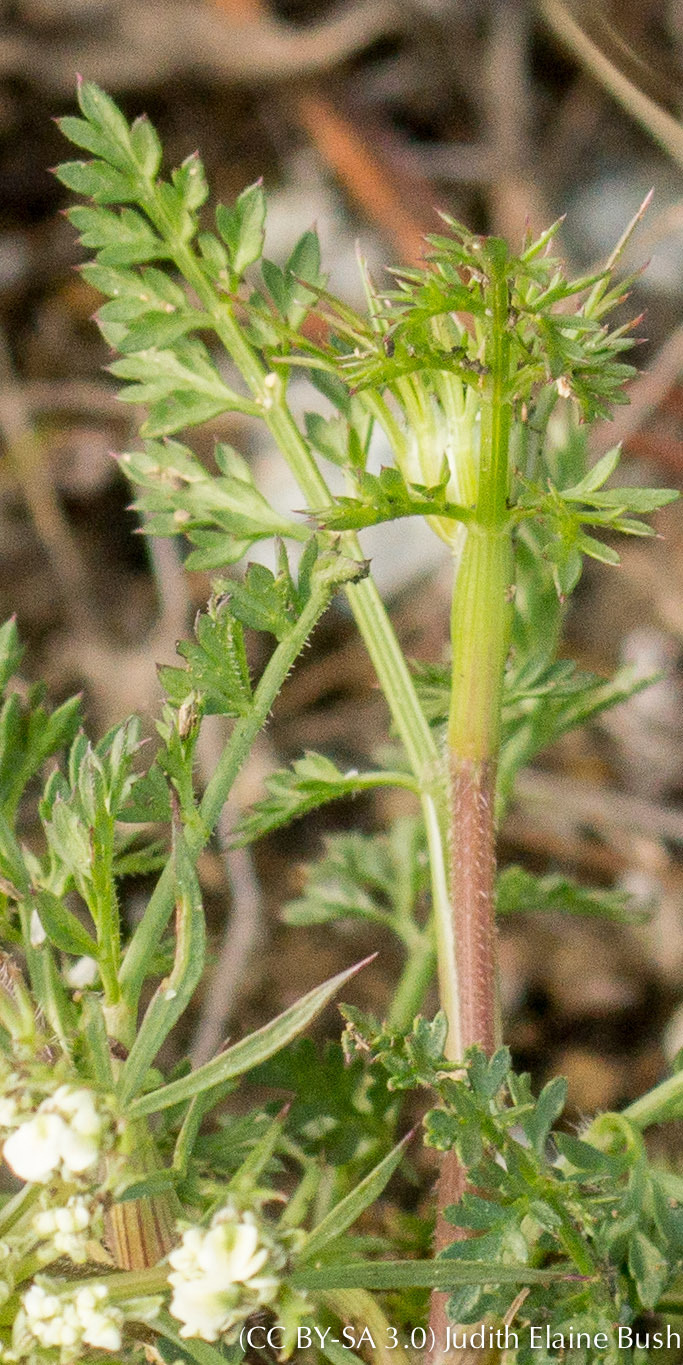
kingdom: Plantae
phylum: Tracheophyta
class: Magnoliopsida
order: Apiales
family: Apiaceae
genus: Daucus
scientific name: Daucus carota
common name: Wild carrot
